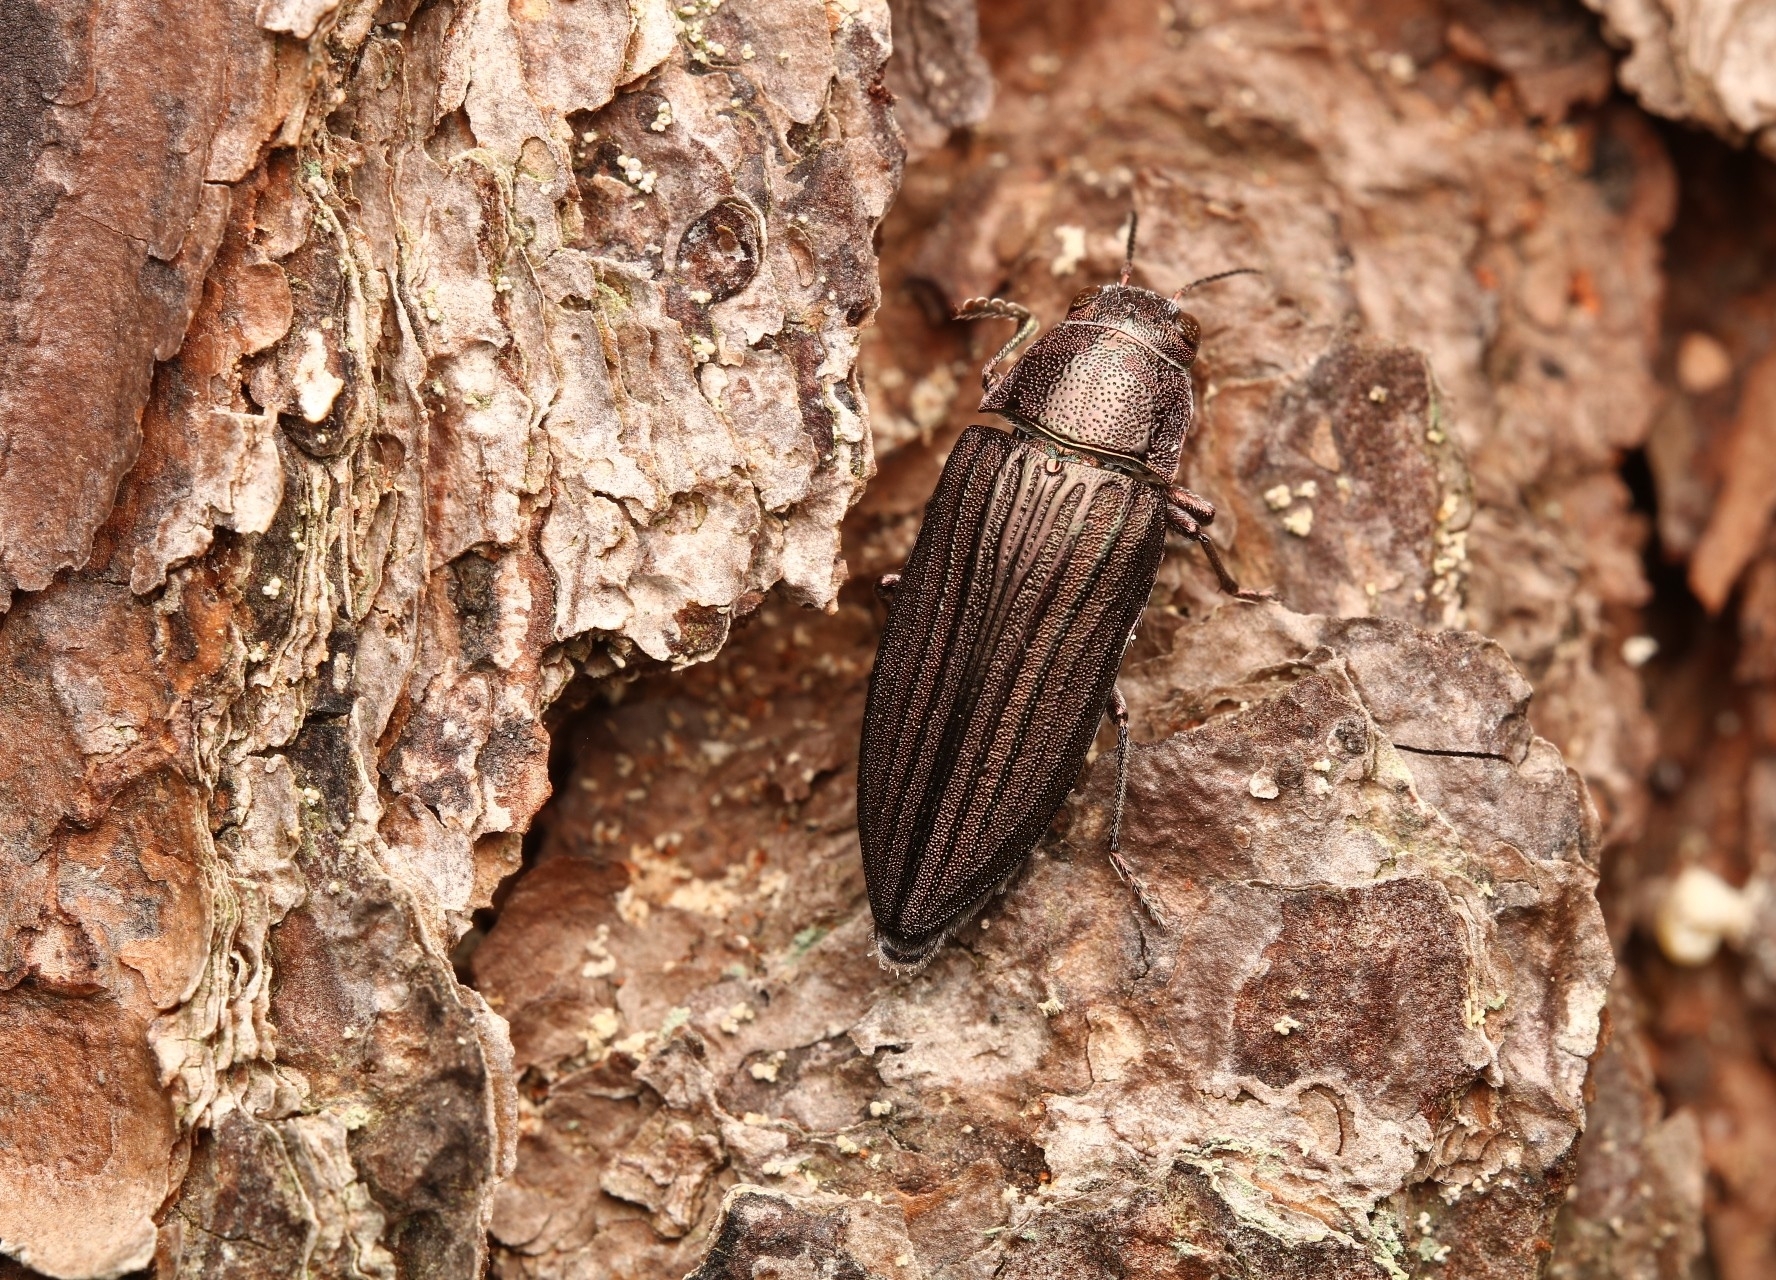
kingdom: Animalia
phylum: Arthropoda
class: Insecta
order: Coleoptera
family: Buprestidae
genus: Buprestis
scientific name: Buprestis striata
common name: Striated jewel beetle
